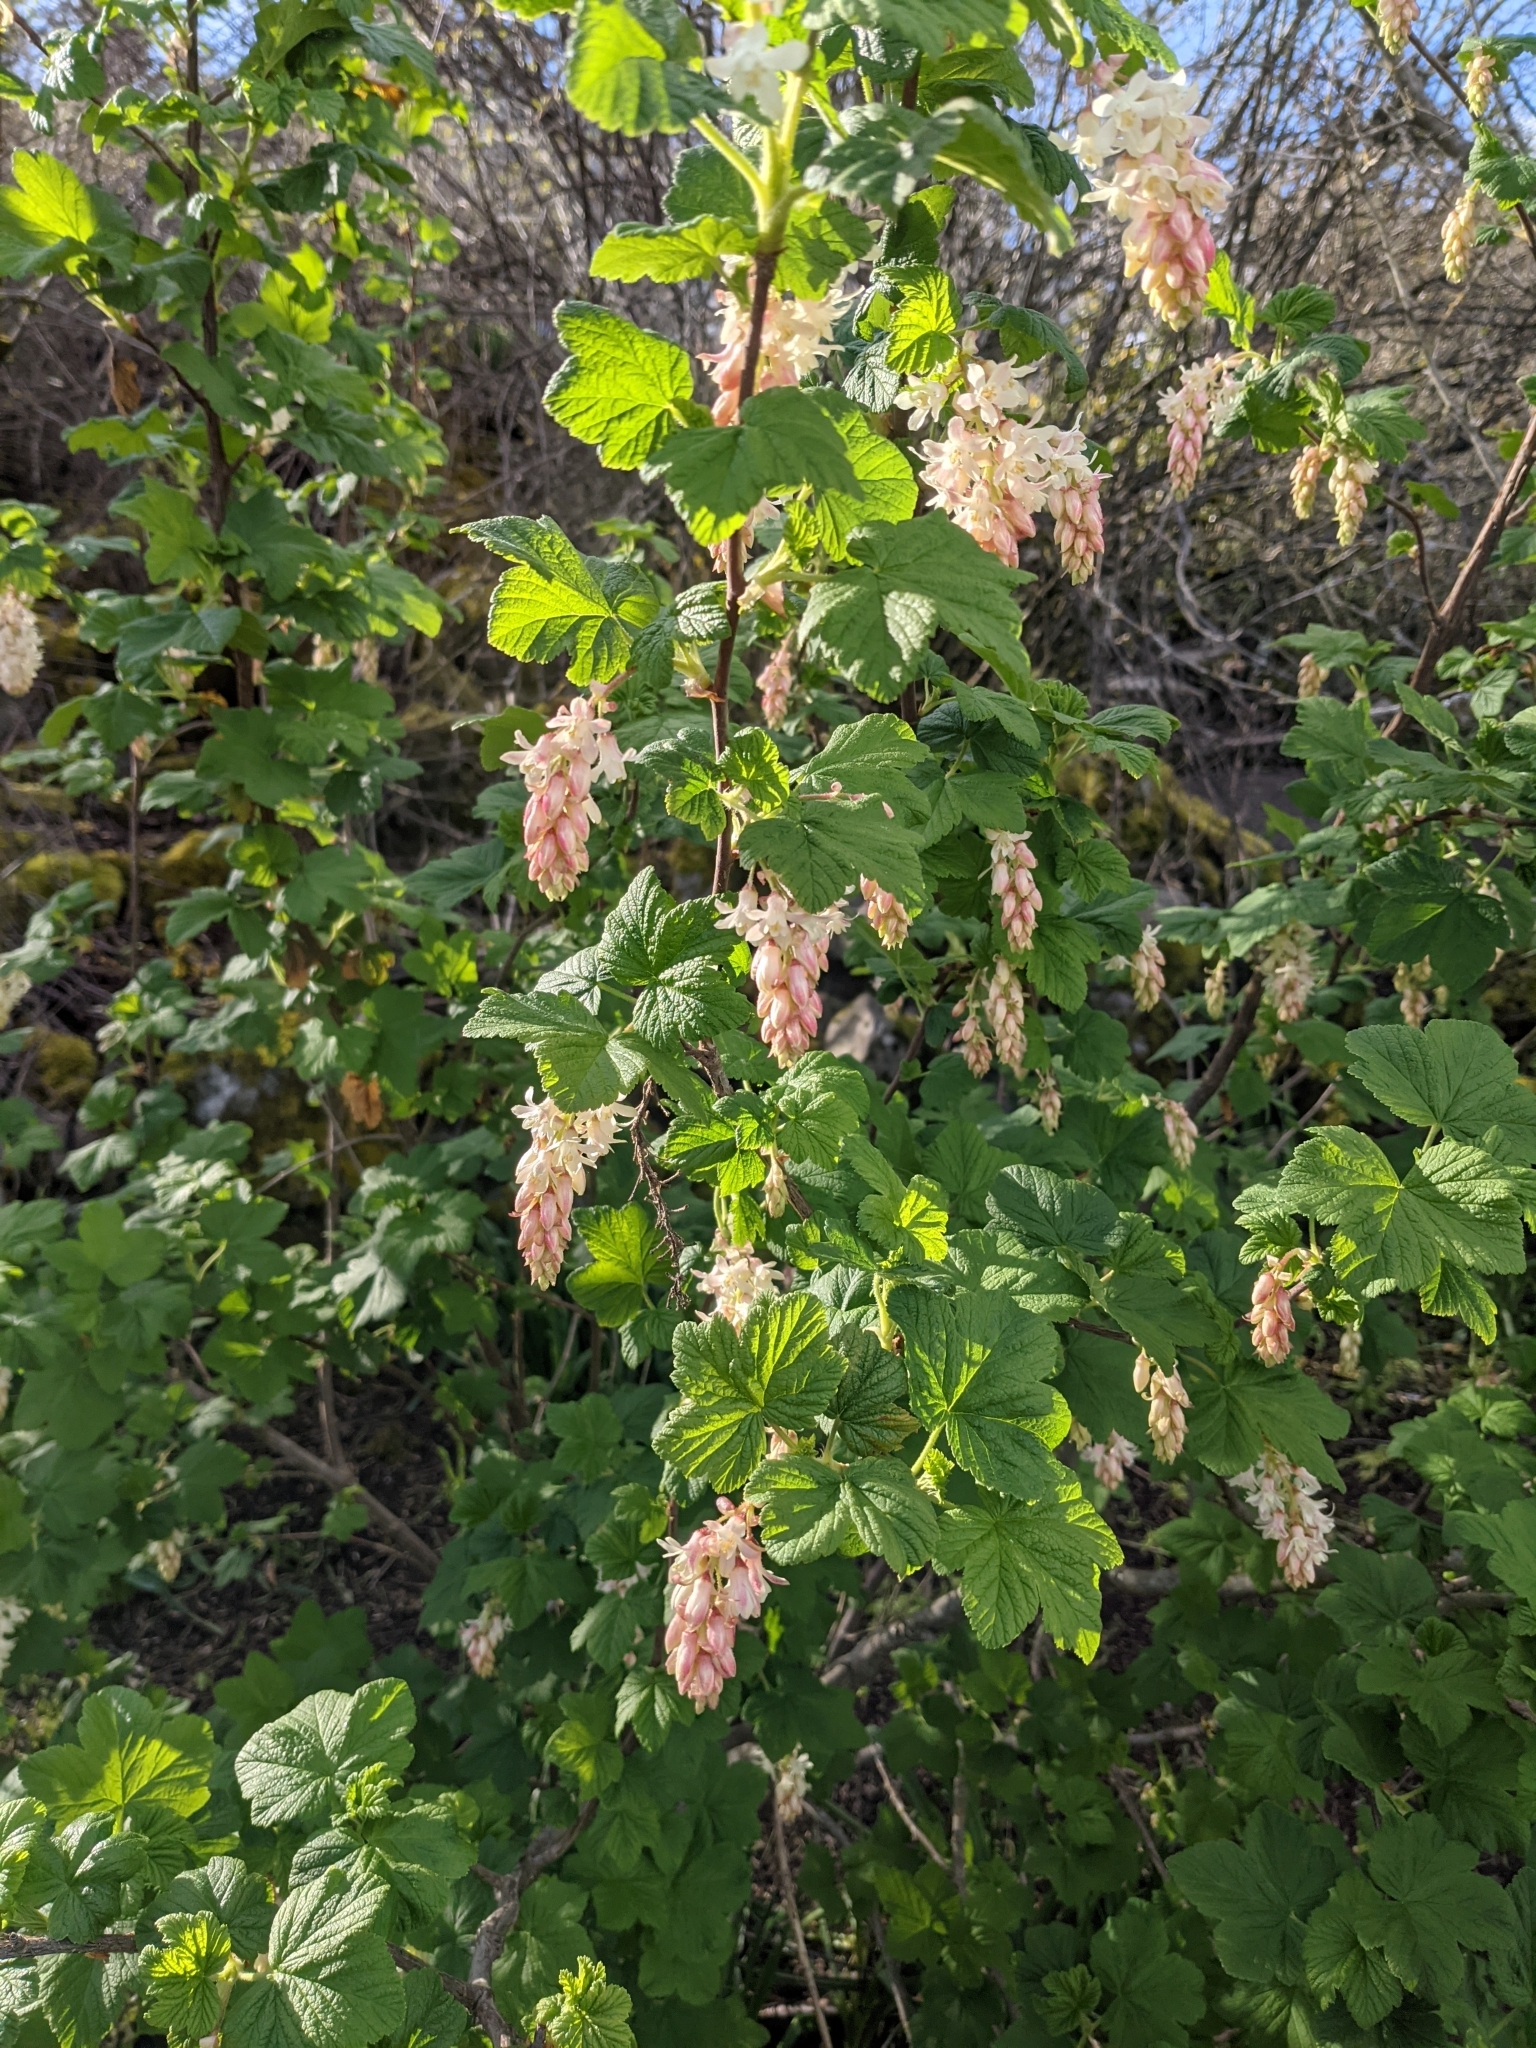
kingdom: Plantae
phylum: Tracheophyta
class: Magnoliopsida
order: Saxifragales
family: Grossulariaceae
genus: Ribes
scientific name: Ribes sanguineum
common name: Flowering currant
